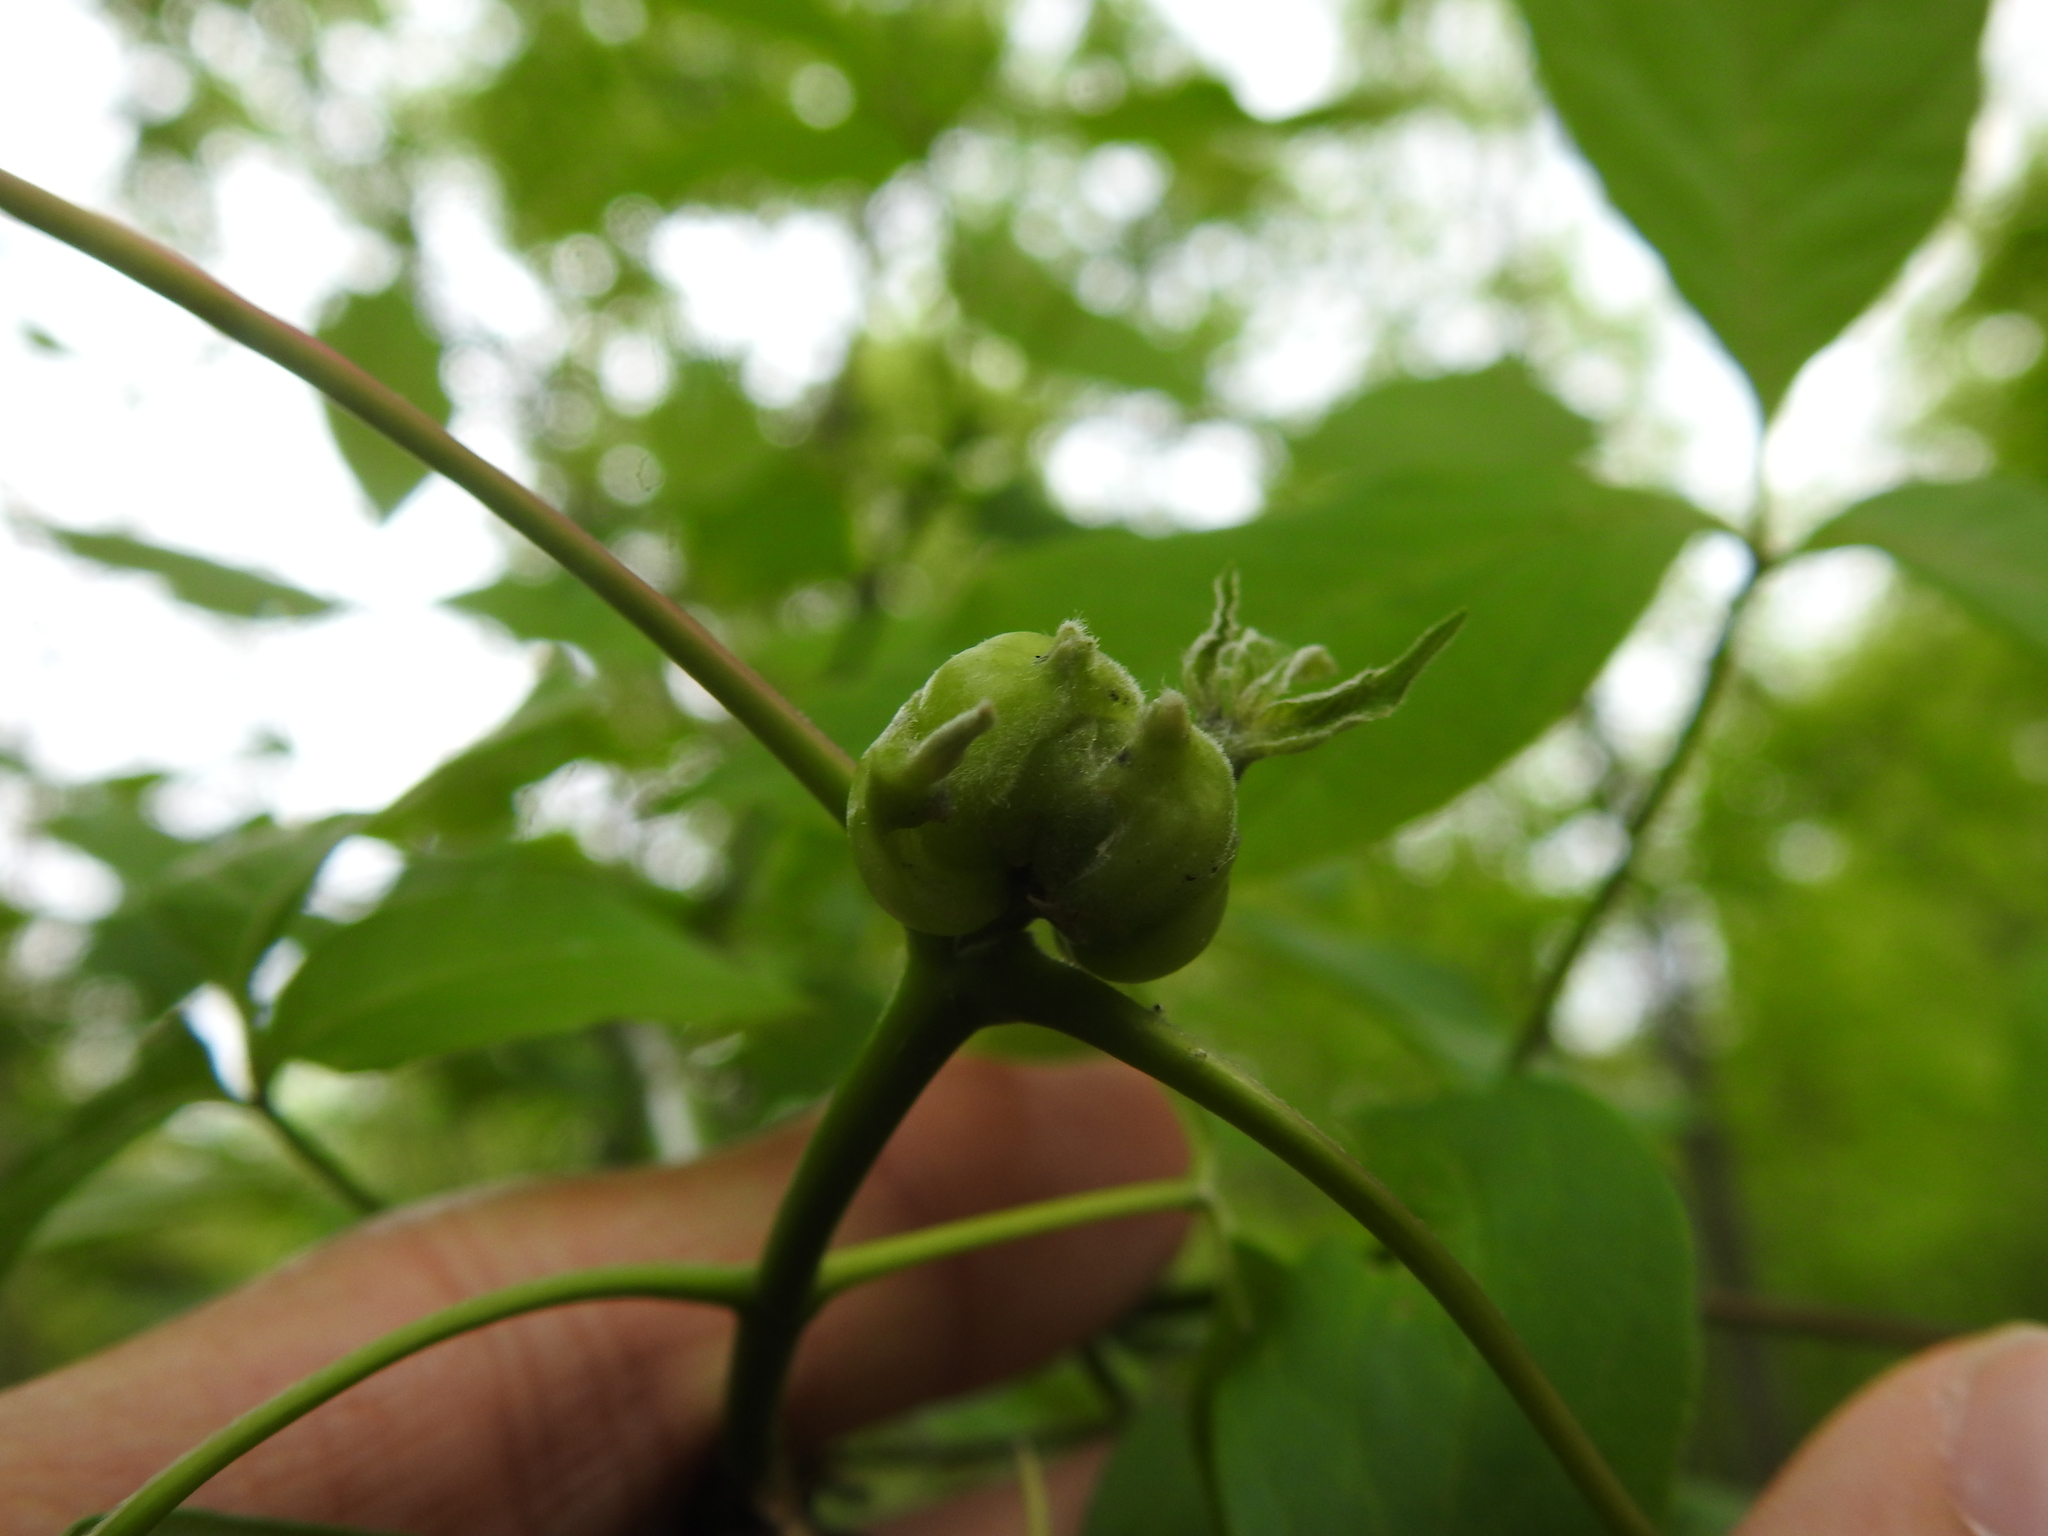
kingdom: Animalia
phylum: Arthropoda
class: Insecta
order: Diptera
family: Cecidomyiidae
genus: Contarinia
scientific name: Contarinia negundinis
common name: Boxelder budgall midge
